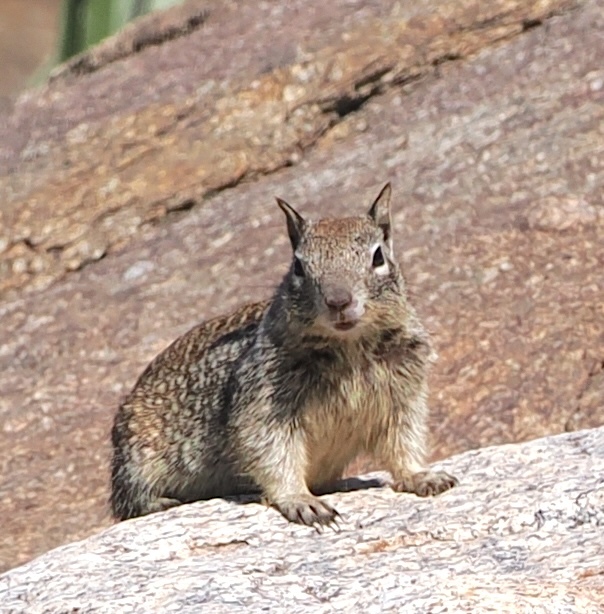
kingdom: Animalia
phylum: Chordata
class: Mammalia
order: Rodentia
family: Sciuridae
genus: Otospermophilus
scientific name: Otospermophilus beecheyi
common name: California ground squirrel
